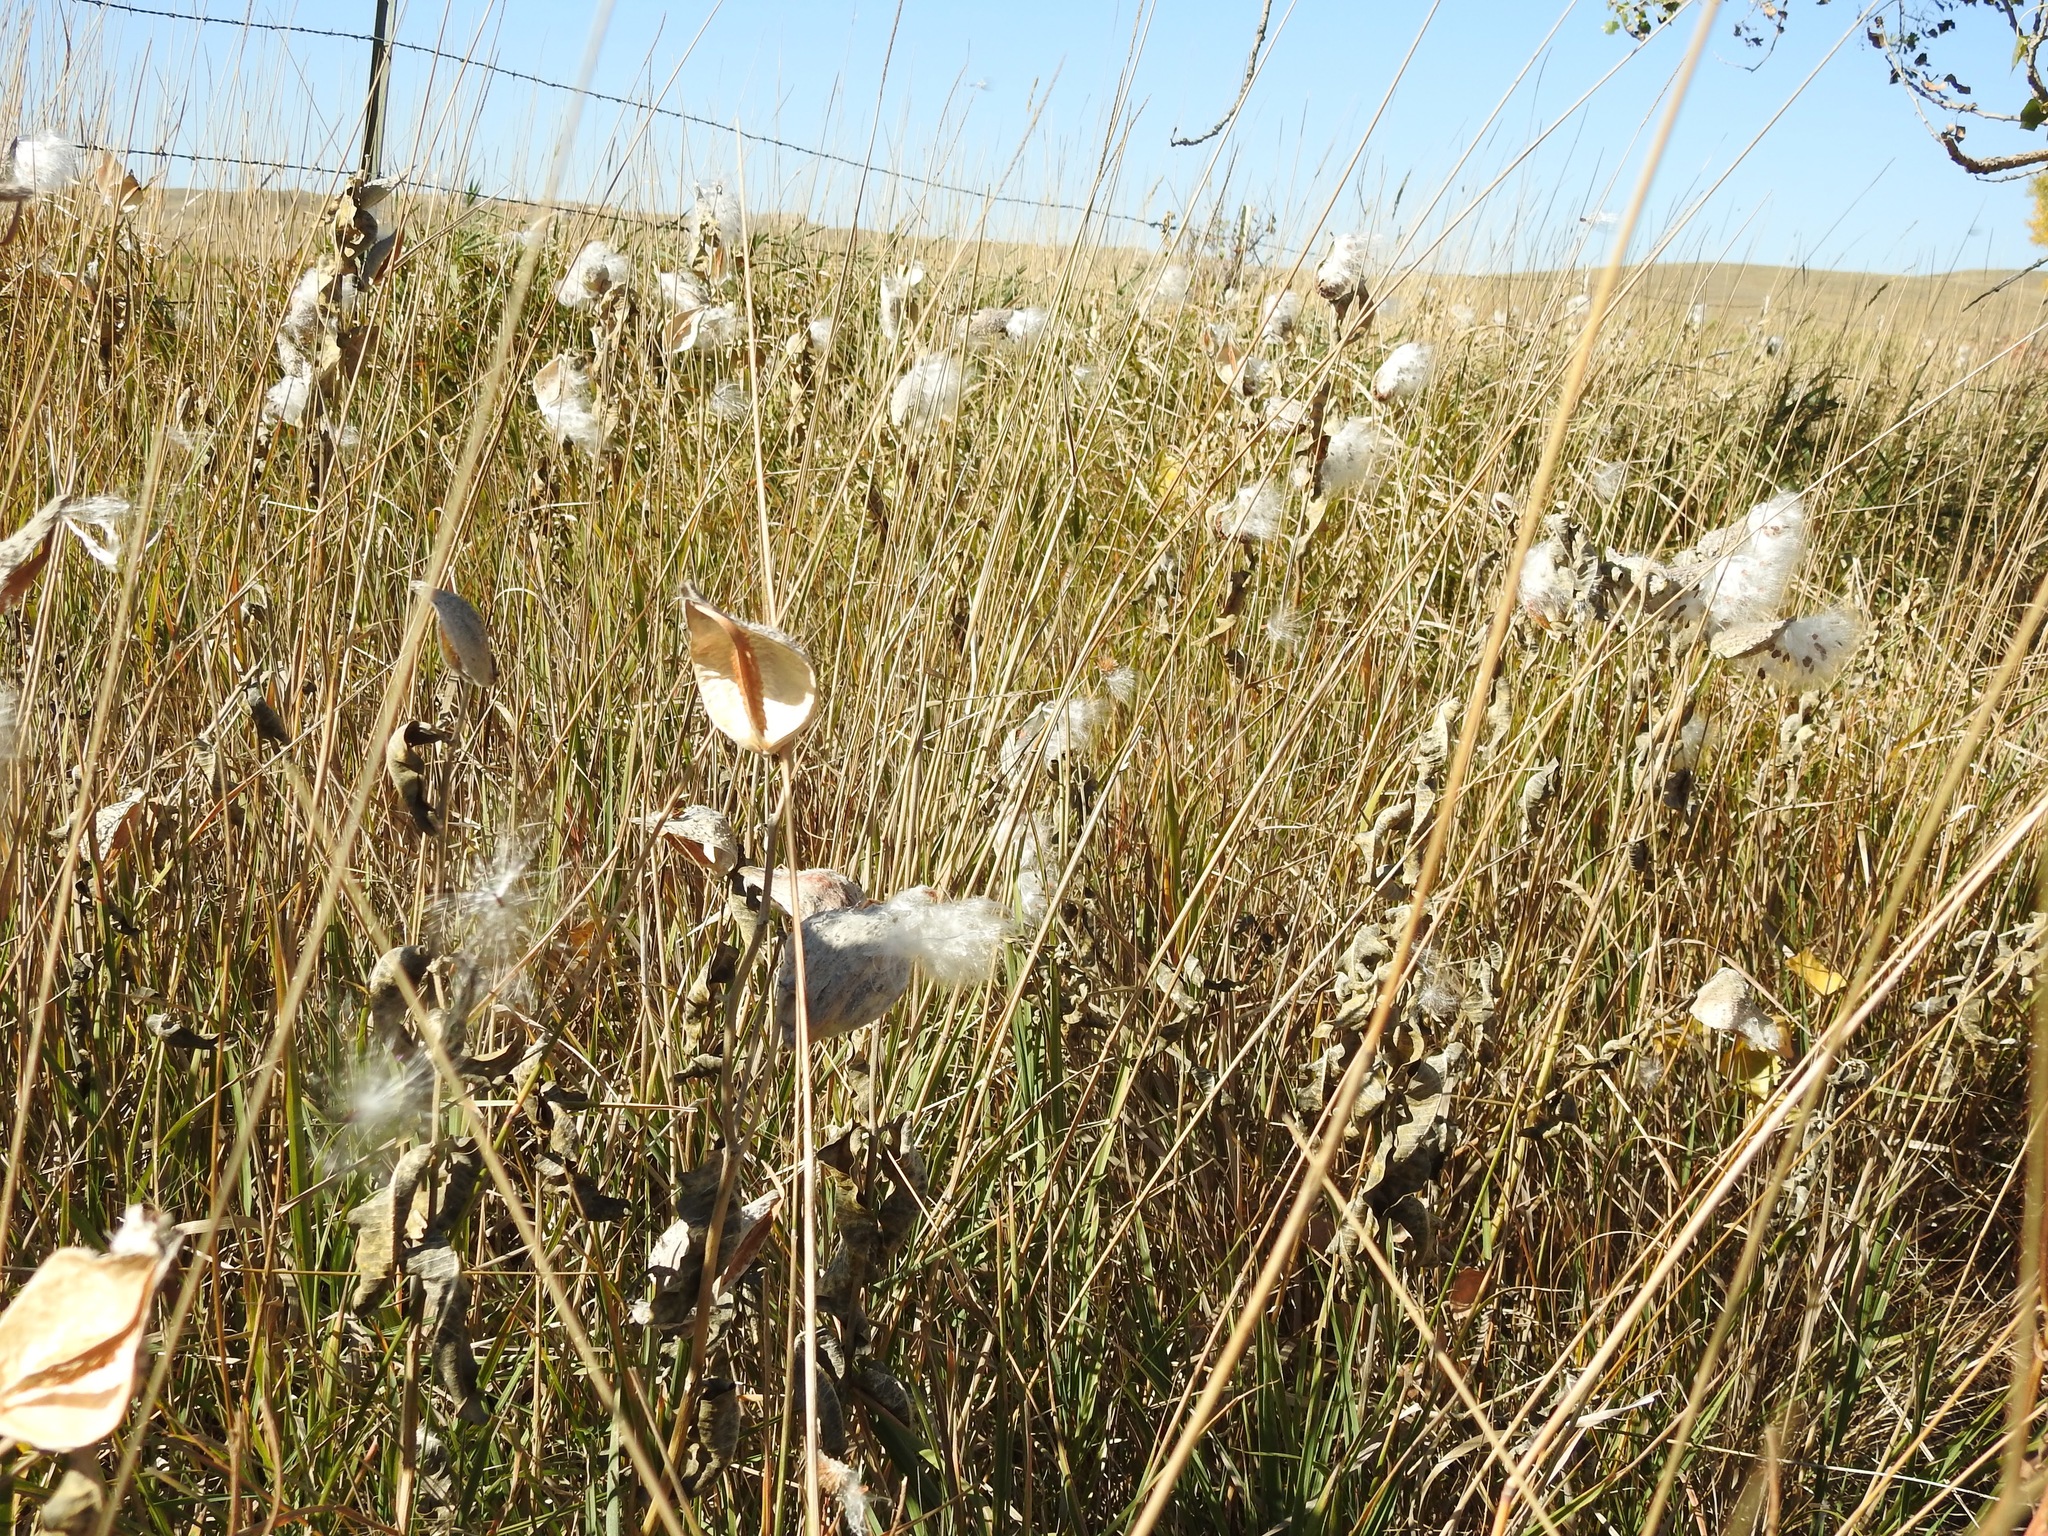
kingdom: Plantae
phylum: Tracheophyta
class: Magnoliopsida
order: Gentianales
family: Apocynaceae
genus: Asclepias
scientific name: Asclepias speciosa
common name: Showy milkweed
